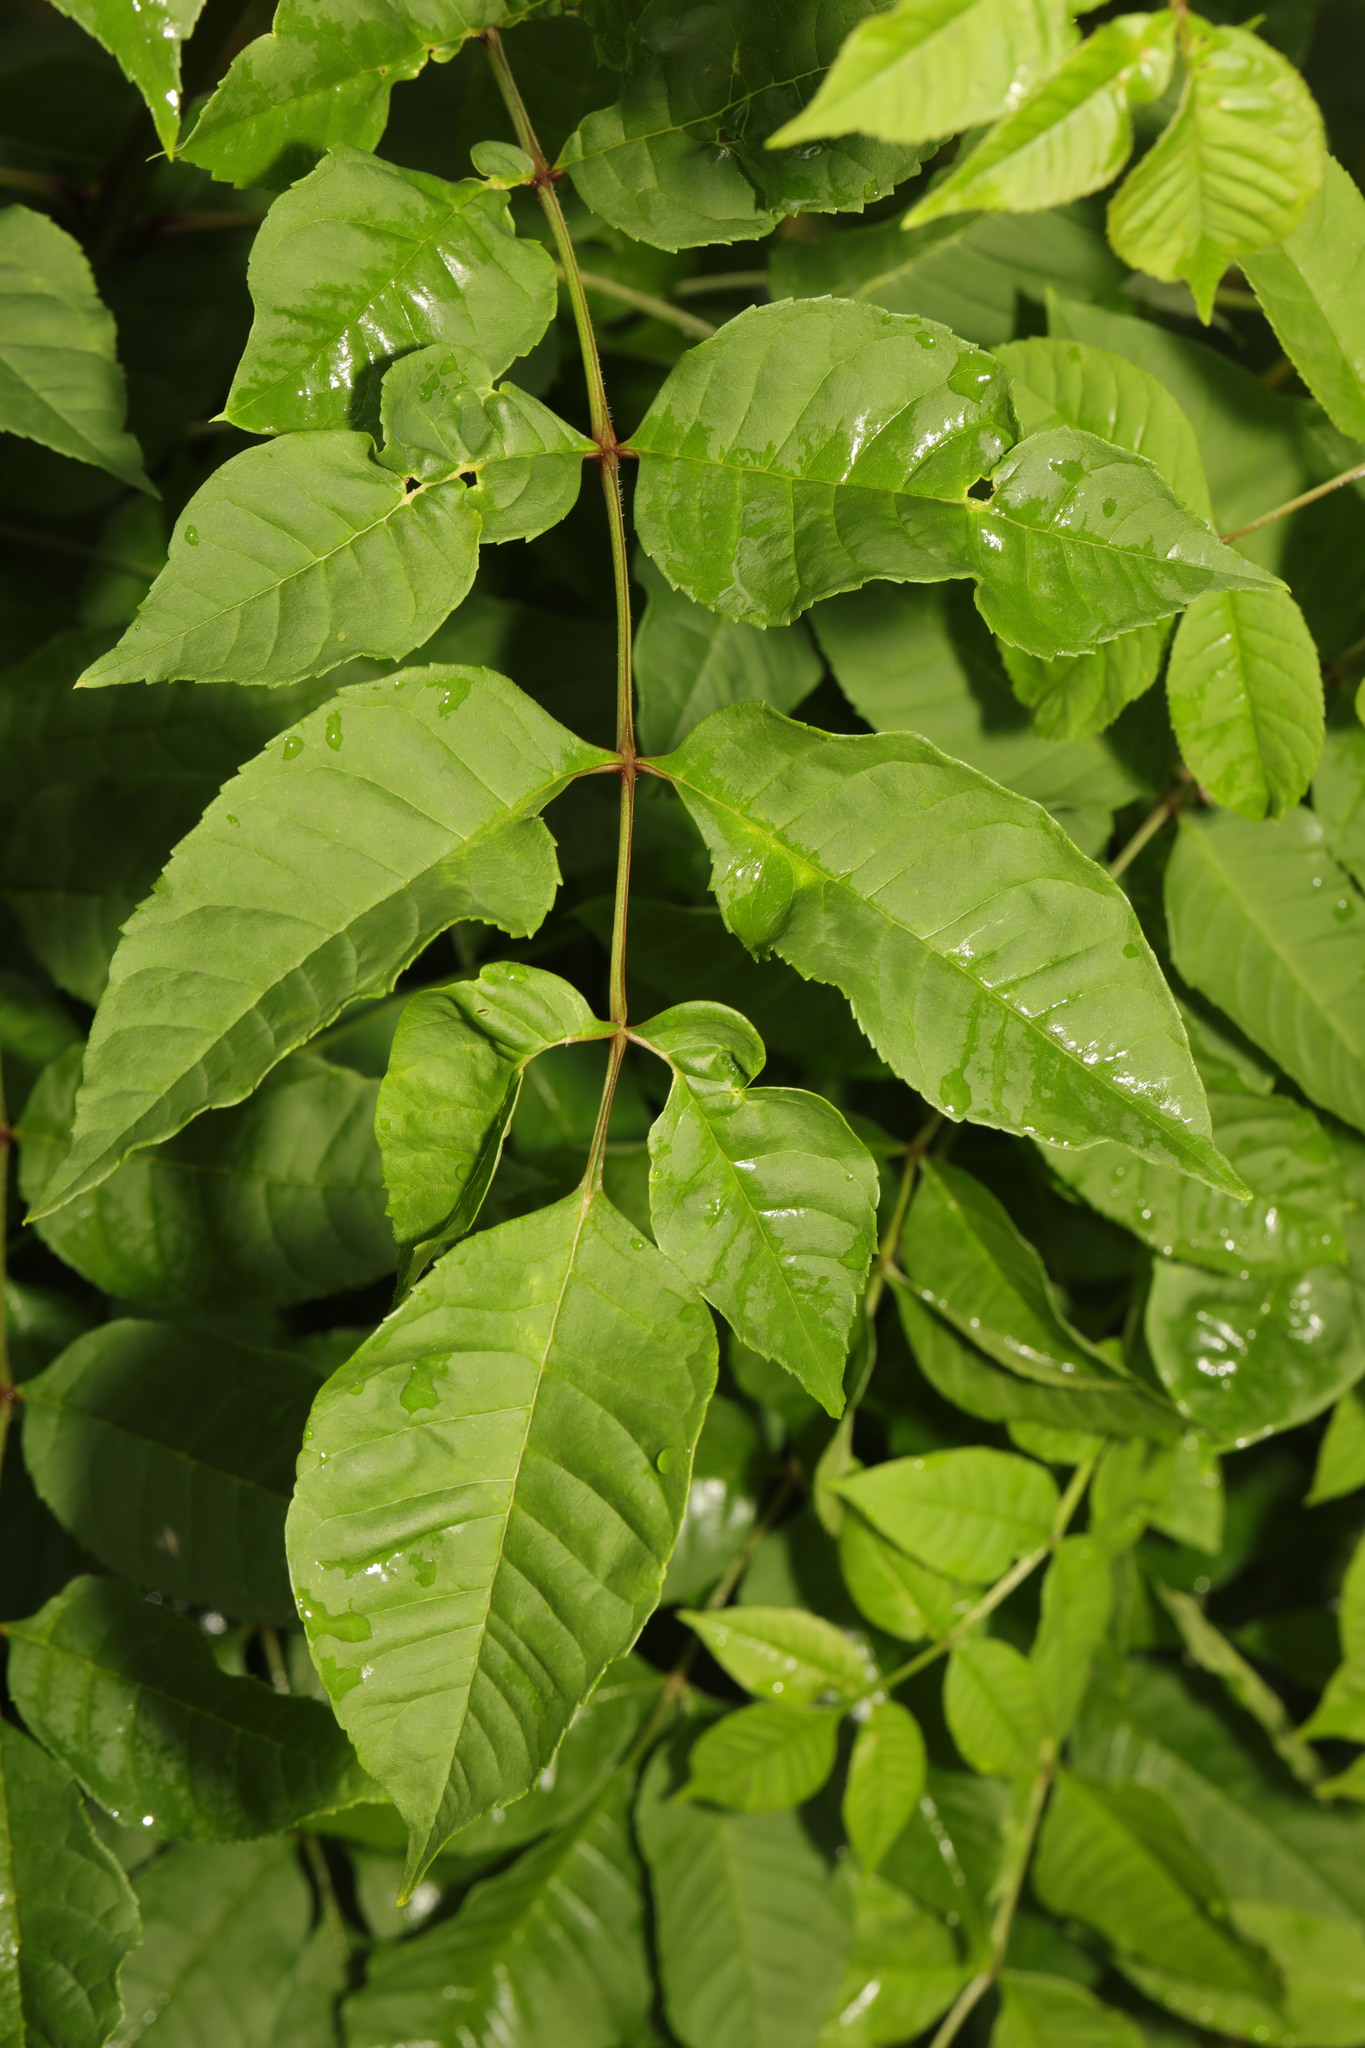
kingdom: Plantae
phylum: Tracheophyta
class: Magnoliopsida
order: Lamiales
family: Oleaceae
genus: Fraxinus
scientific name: Fraxinus excelsior
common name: European ash
